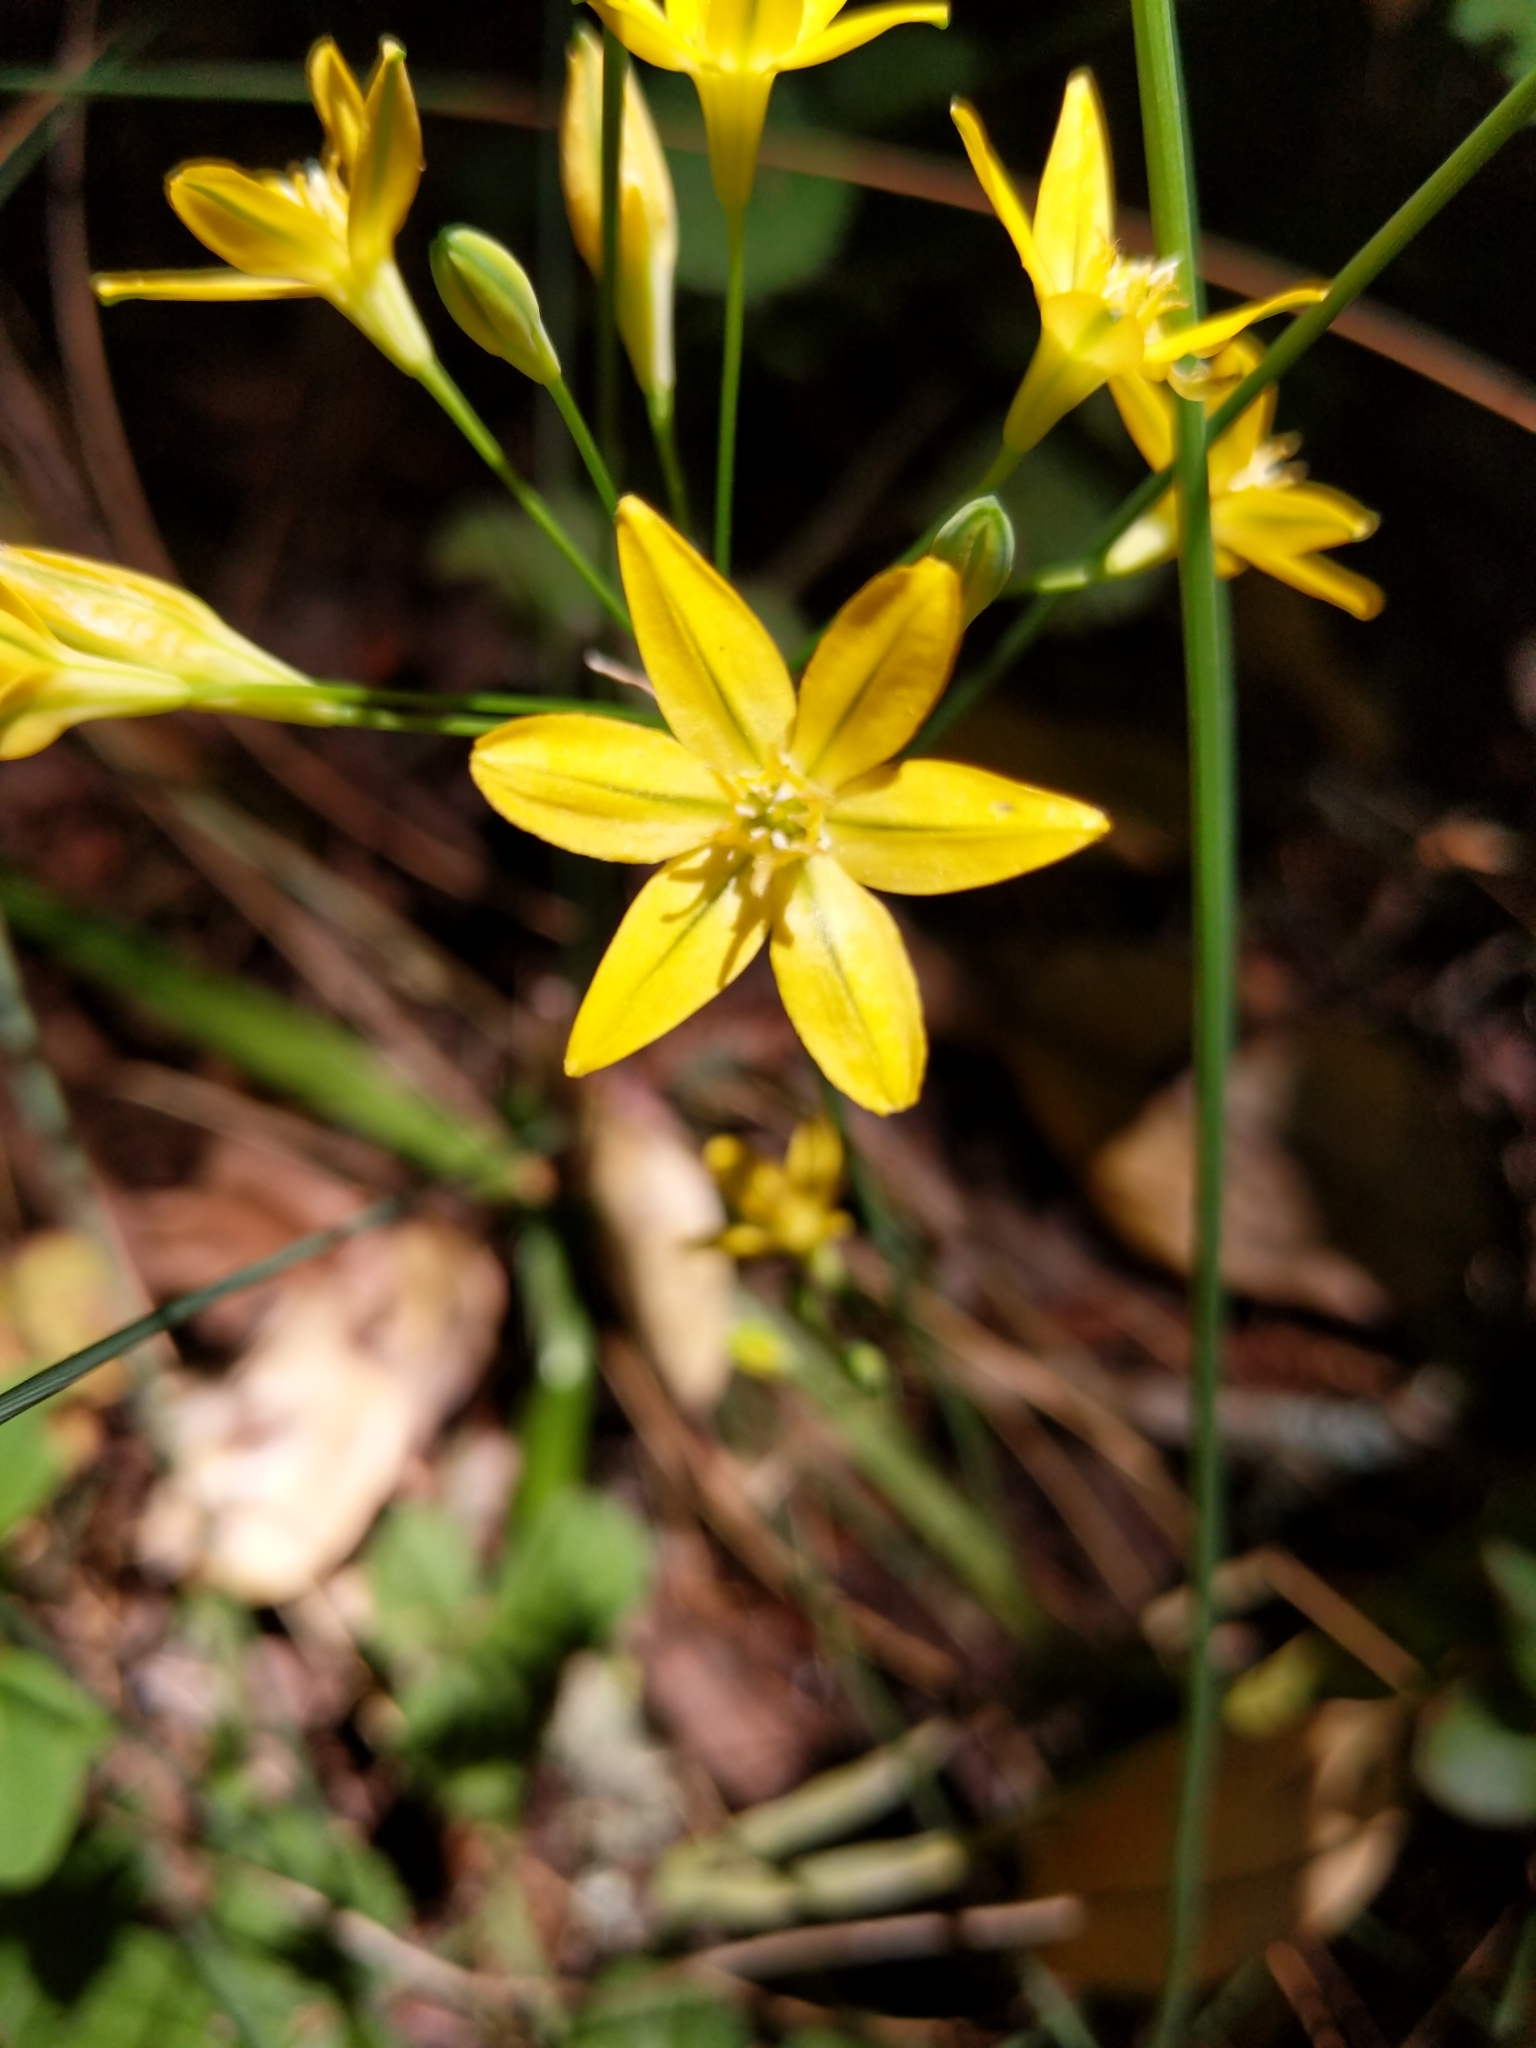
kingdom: Plantae
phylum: Tracheophyta
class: Liliopsida
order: Asparagales
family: Asparagaceae
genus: Triteleia
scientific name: Triteleia ixioides
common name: Yellow-brodiaea
